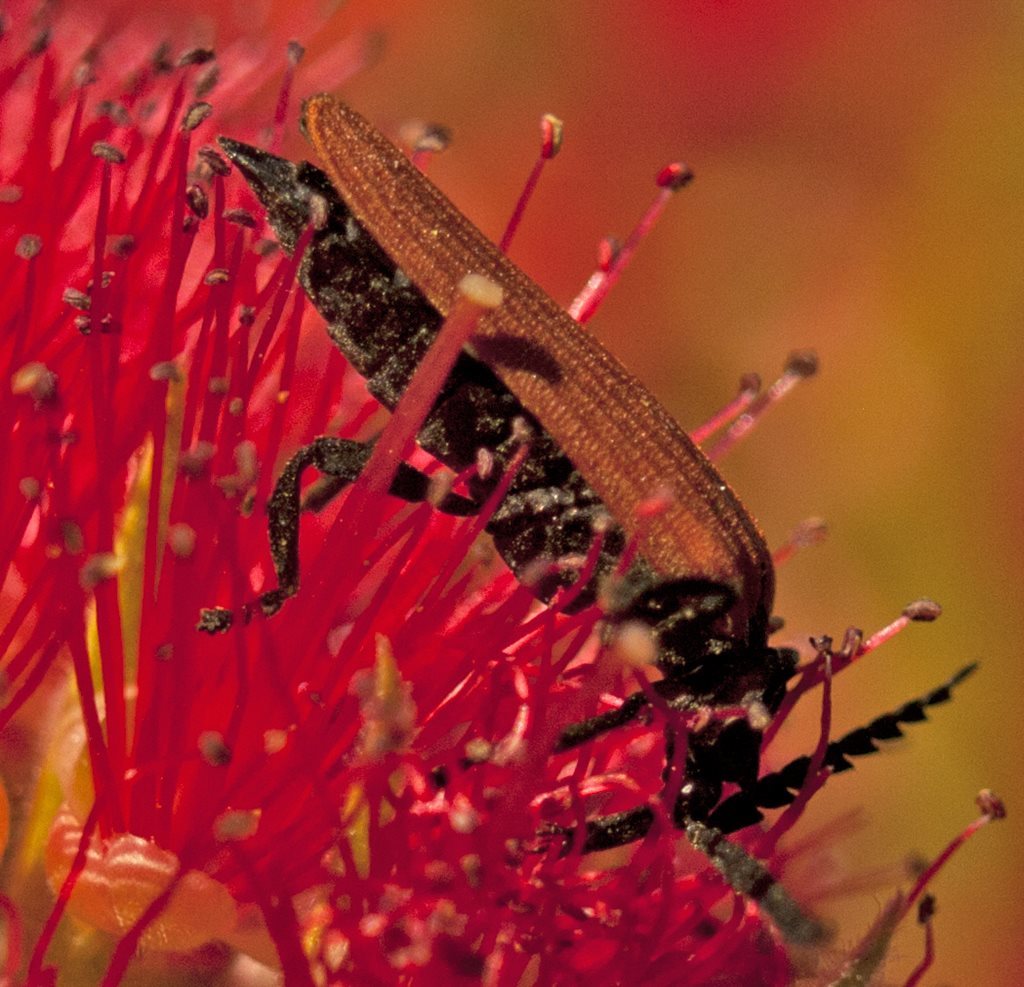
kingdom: Animalia
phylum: Arthropoda
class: Insecta
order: Coleoptera
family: Lycidae
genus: Porrostoma
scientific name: Porrostoma rhipidium
